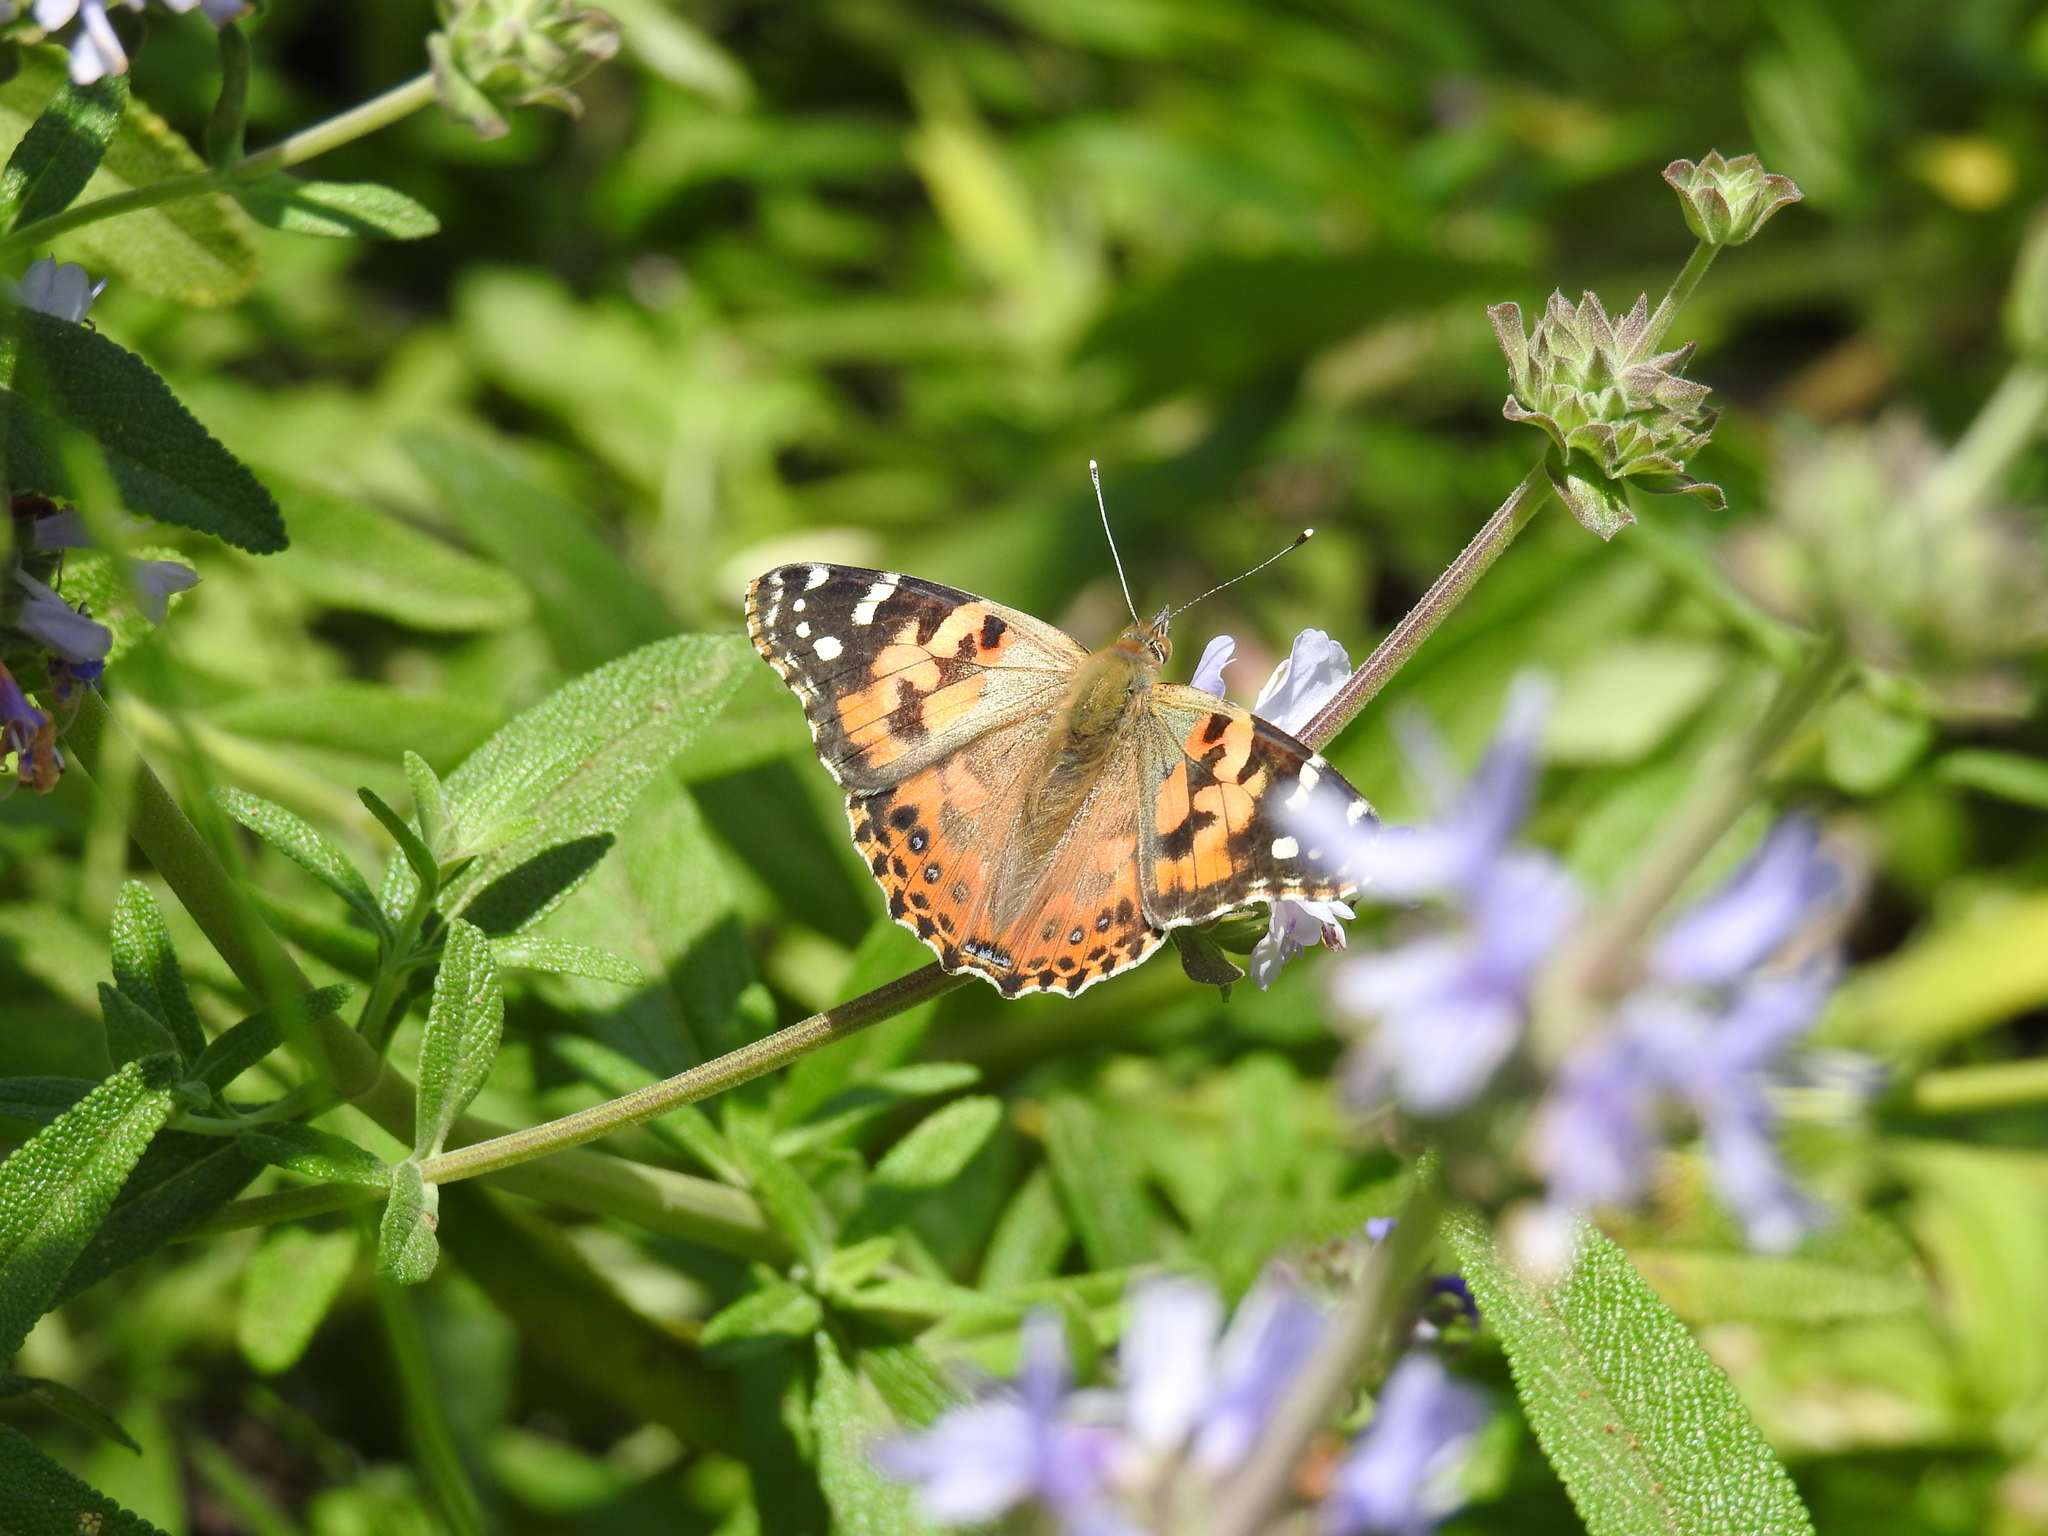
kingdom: Animalia
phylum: Arthropoda
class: Insecta
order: Lepidoptera
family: Nymphalidae
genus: Vanessa
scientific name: Vanessa cardui
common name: Painted lady
